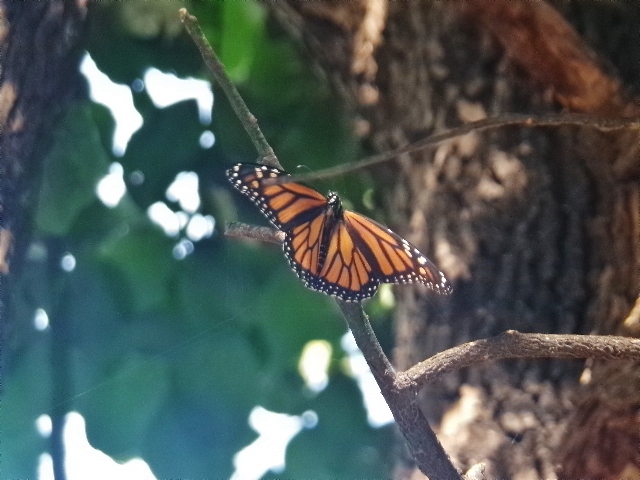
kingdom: Animalia
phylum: Arthropoda
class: Insecta
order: Lepidoptera
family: Nymphalidae
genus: Danaus
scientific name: Danaus plexippus
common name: Monarch
